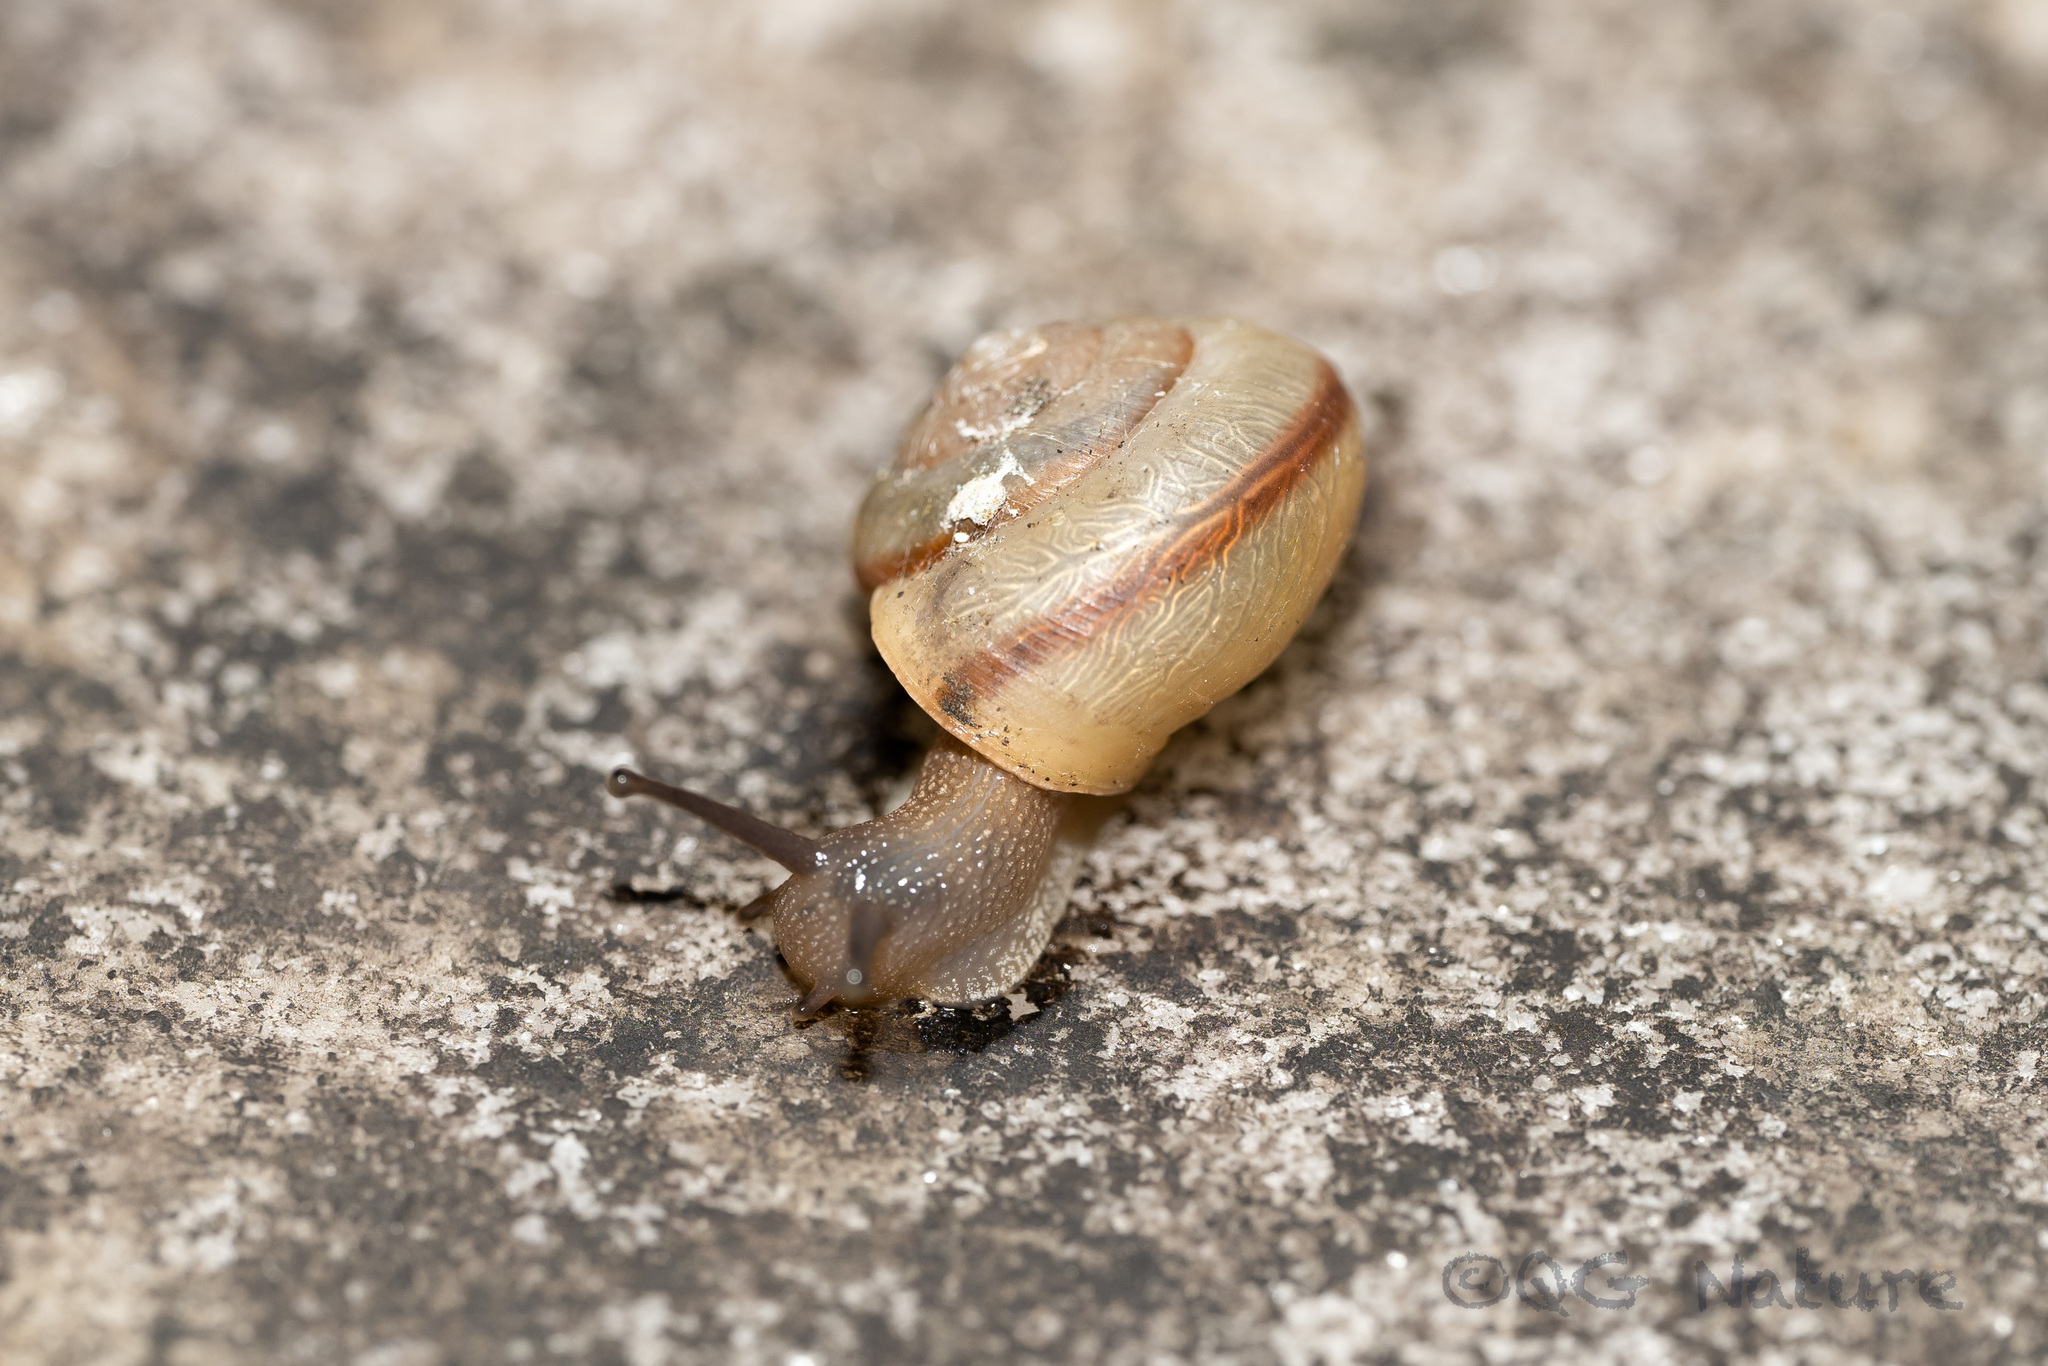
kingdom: Animalia
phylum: Mollusca
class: Gastropoda
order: Stylommatophora
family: Camaenidae
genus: Bradybaena
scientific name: Bradybaena similaris
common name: Asian trampsnail
